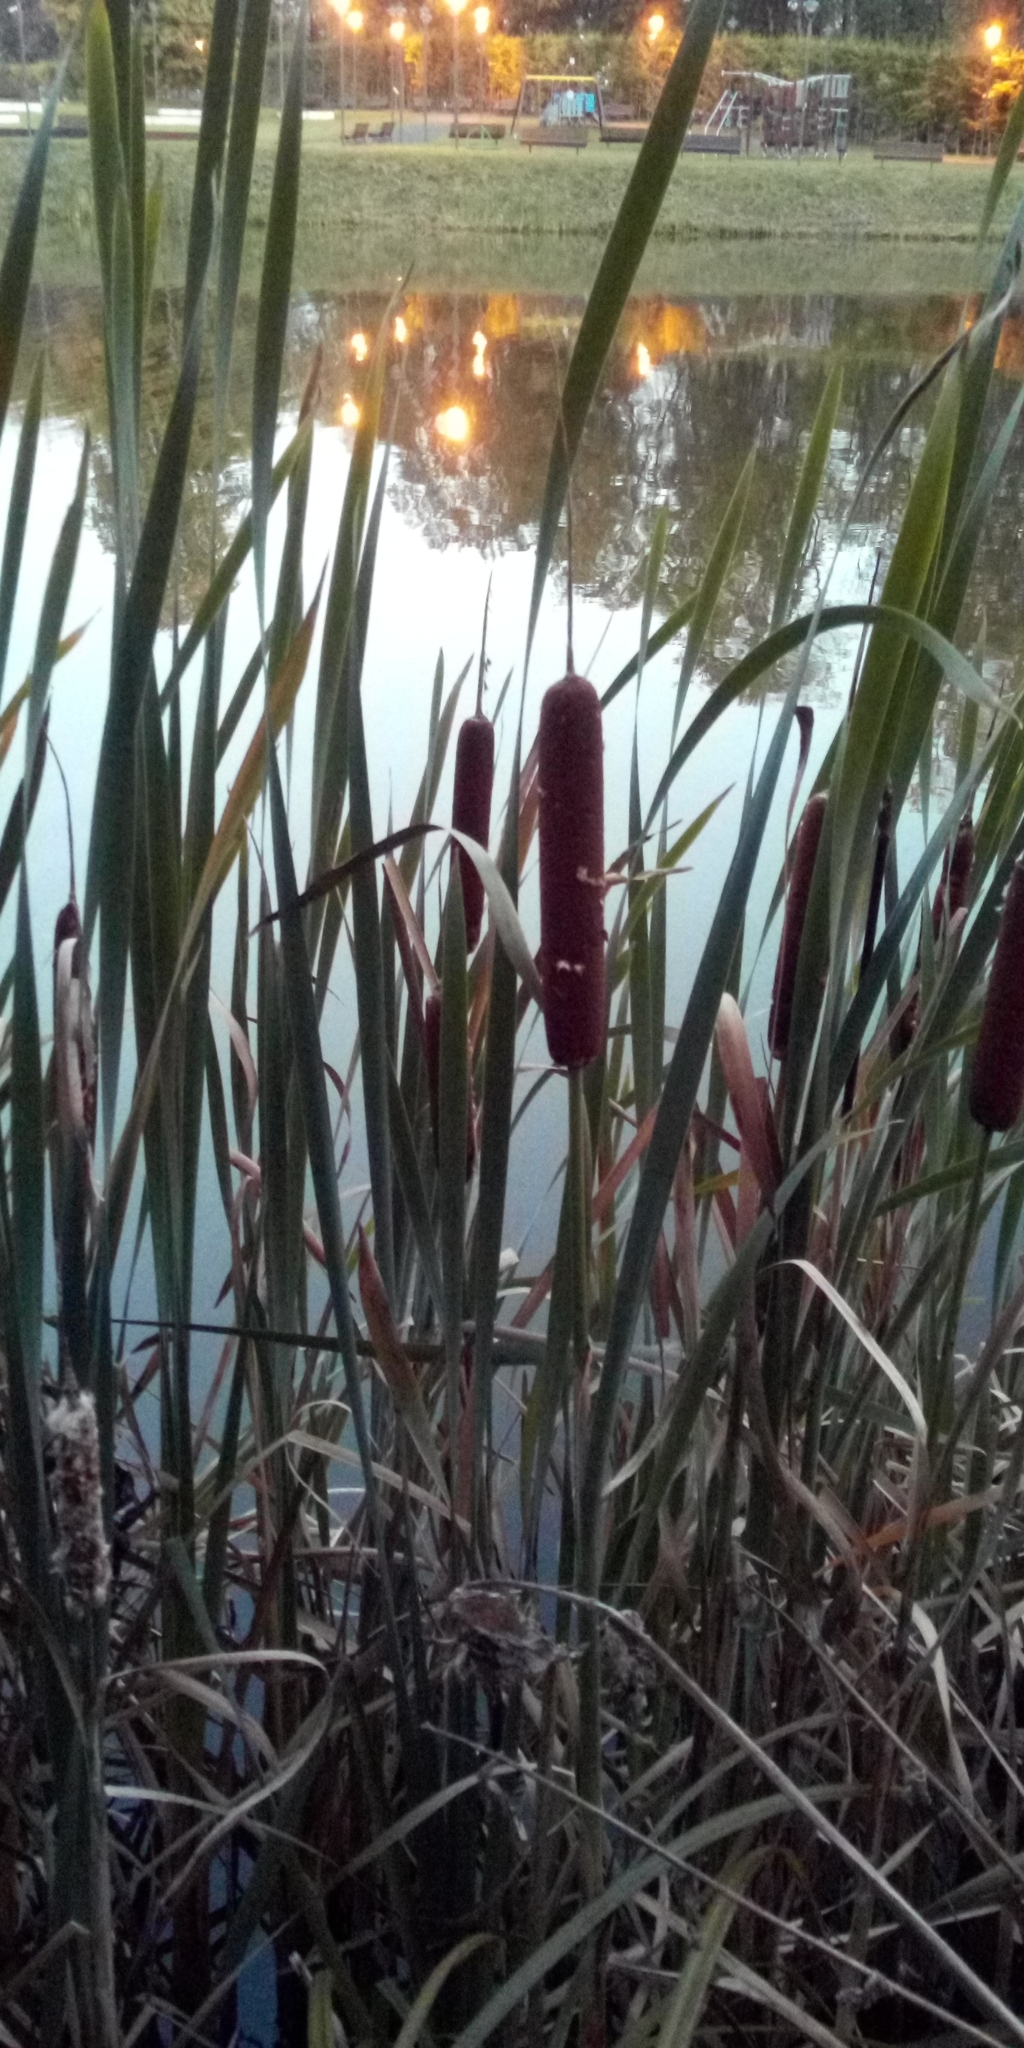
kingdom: Plantae
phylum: Tracheophyta
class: Liliopsida
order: Poales
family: Typhaceae
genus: Typha
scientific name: Typha latifolia
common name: Broadleaf cattail
